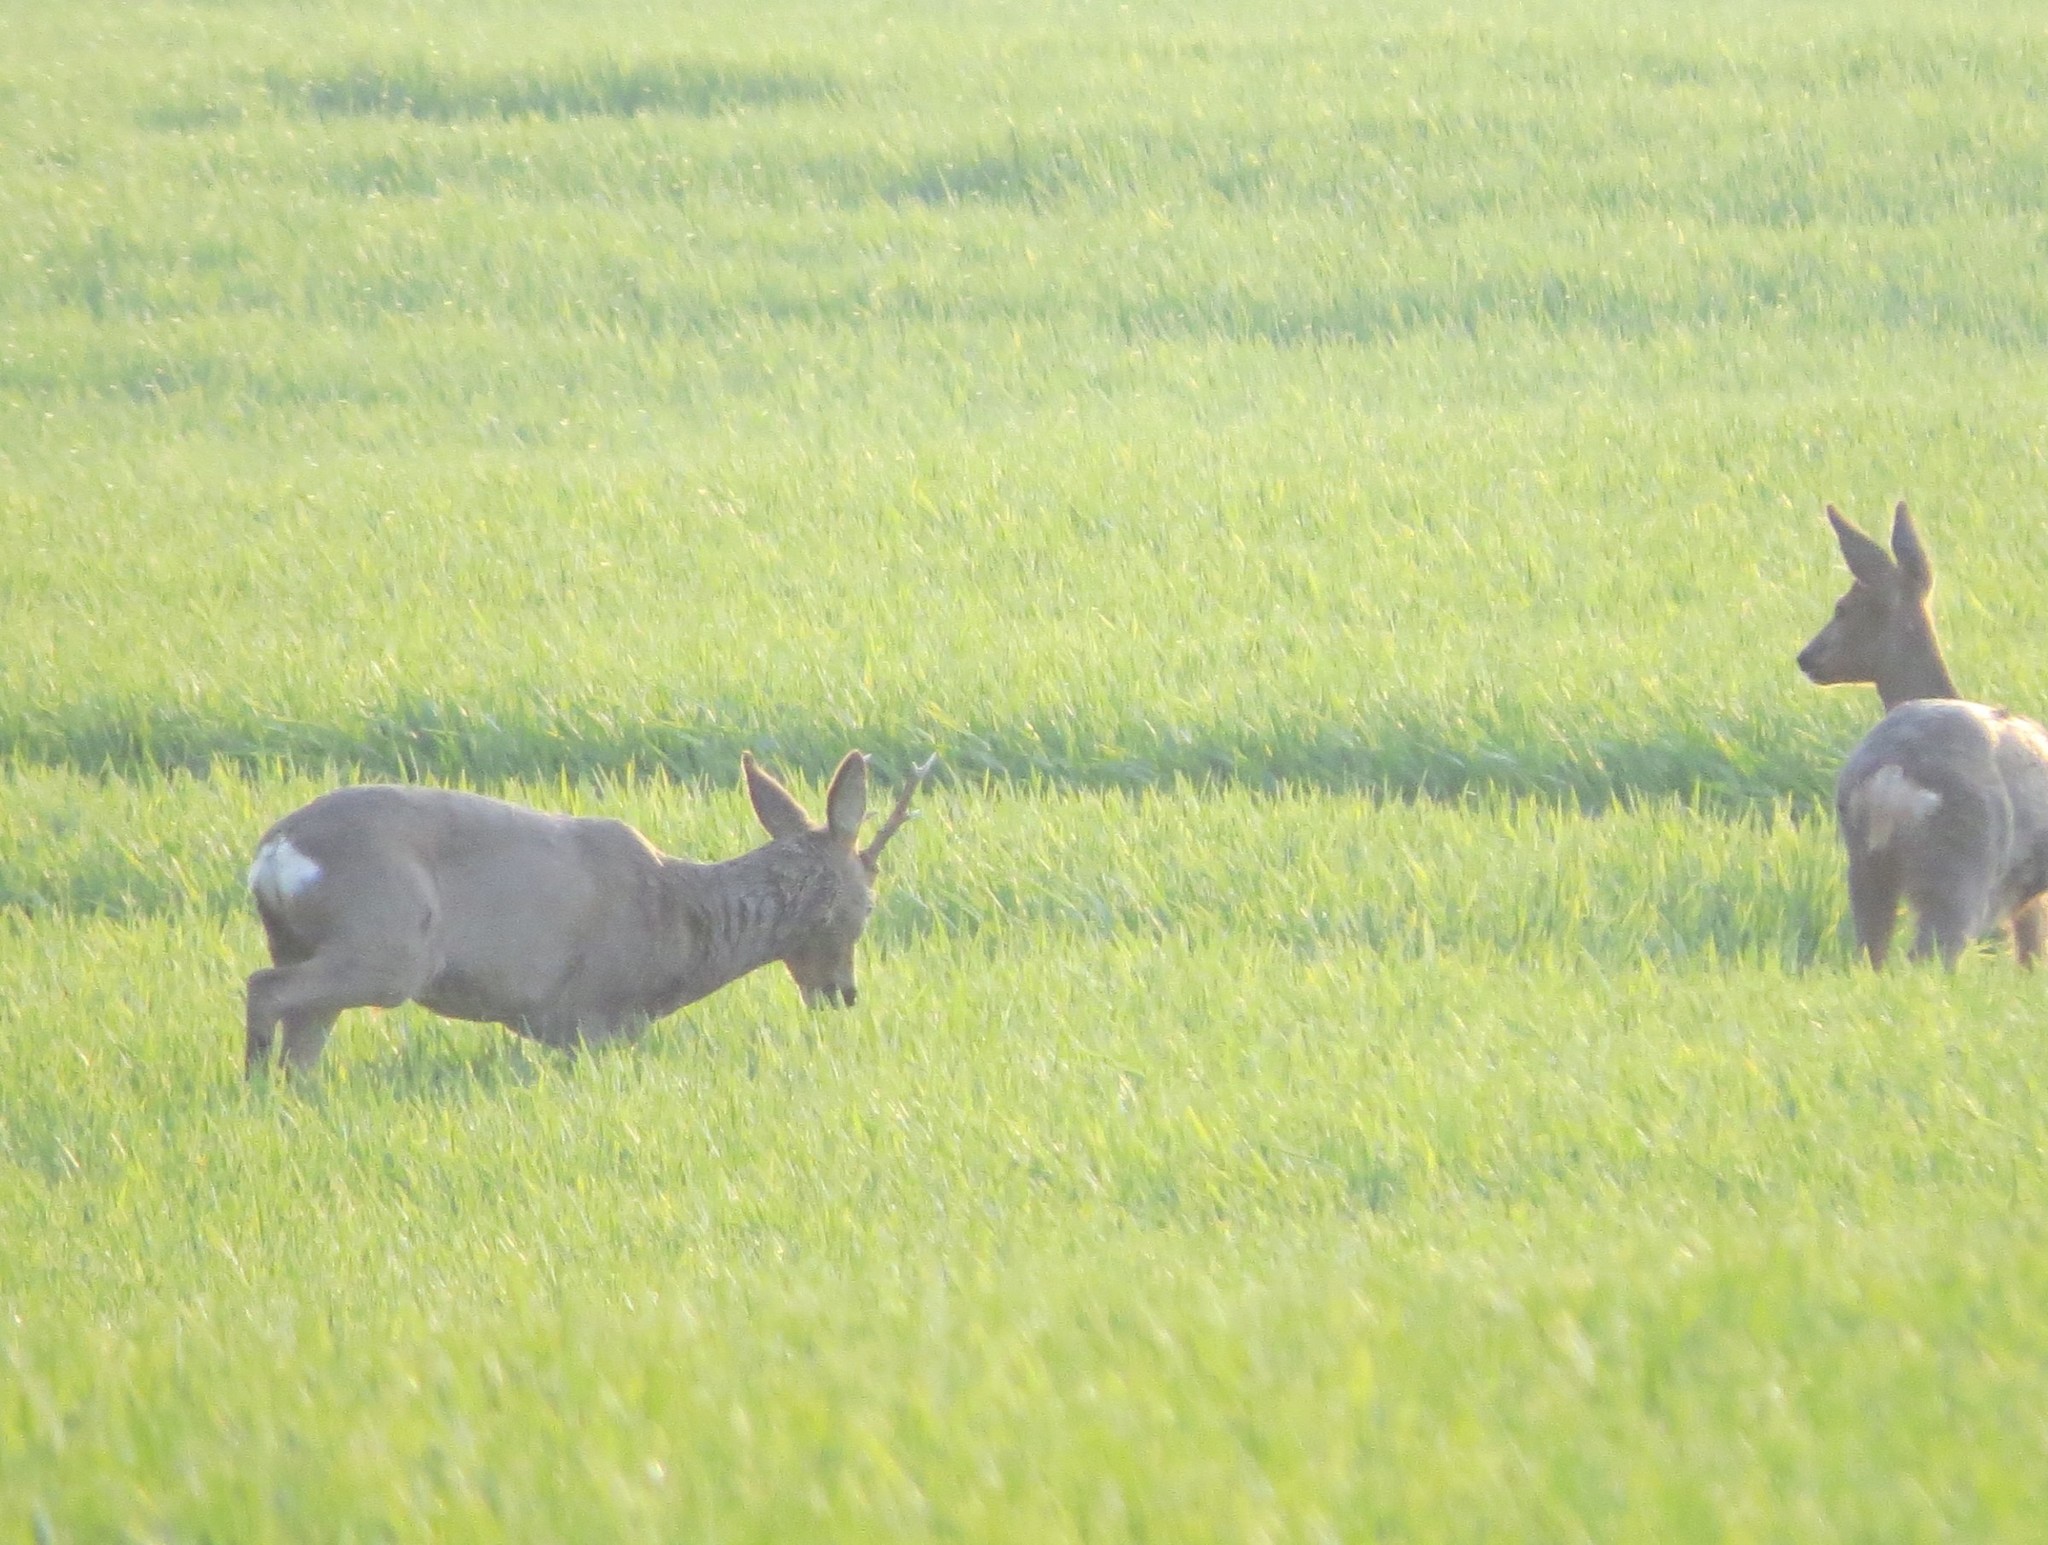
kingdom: Animalia
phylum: Chordata
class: Mammalia
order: Artiodactyla
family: Cervidae
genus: Capreolus
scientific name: Capreolus capreolus
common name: Western roe deer
